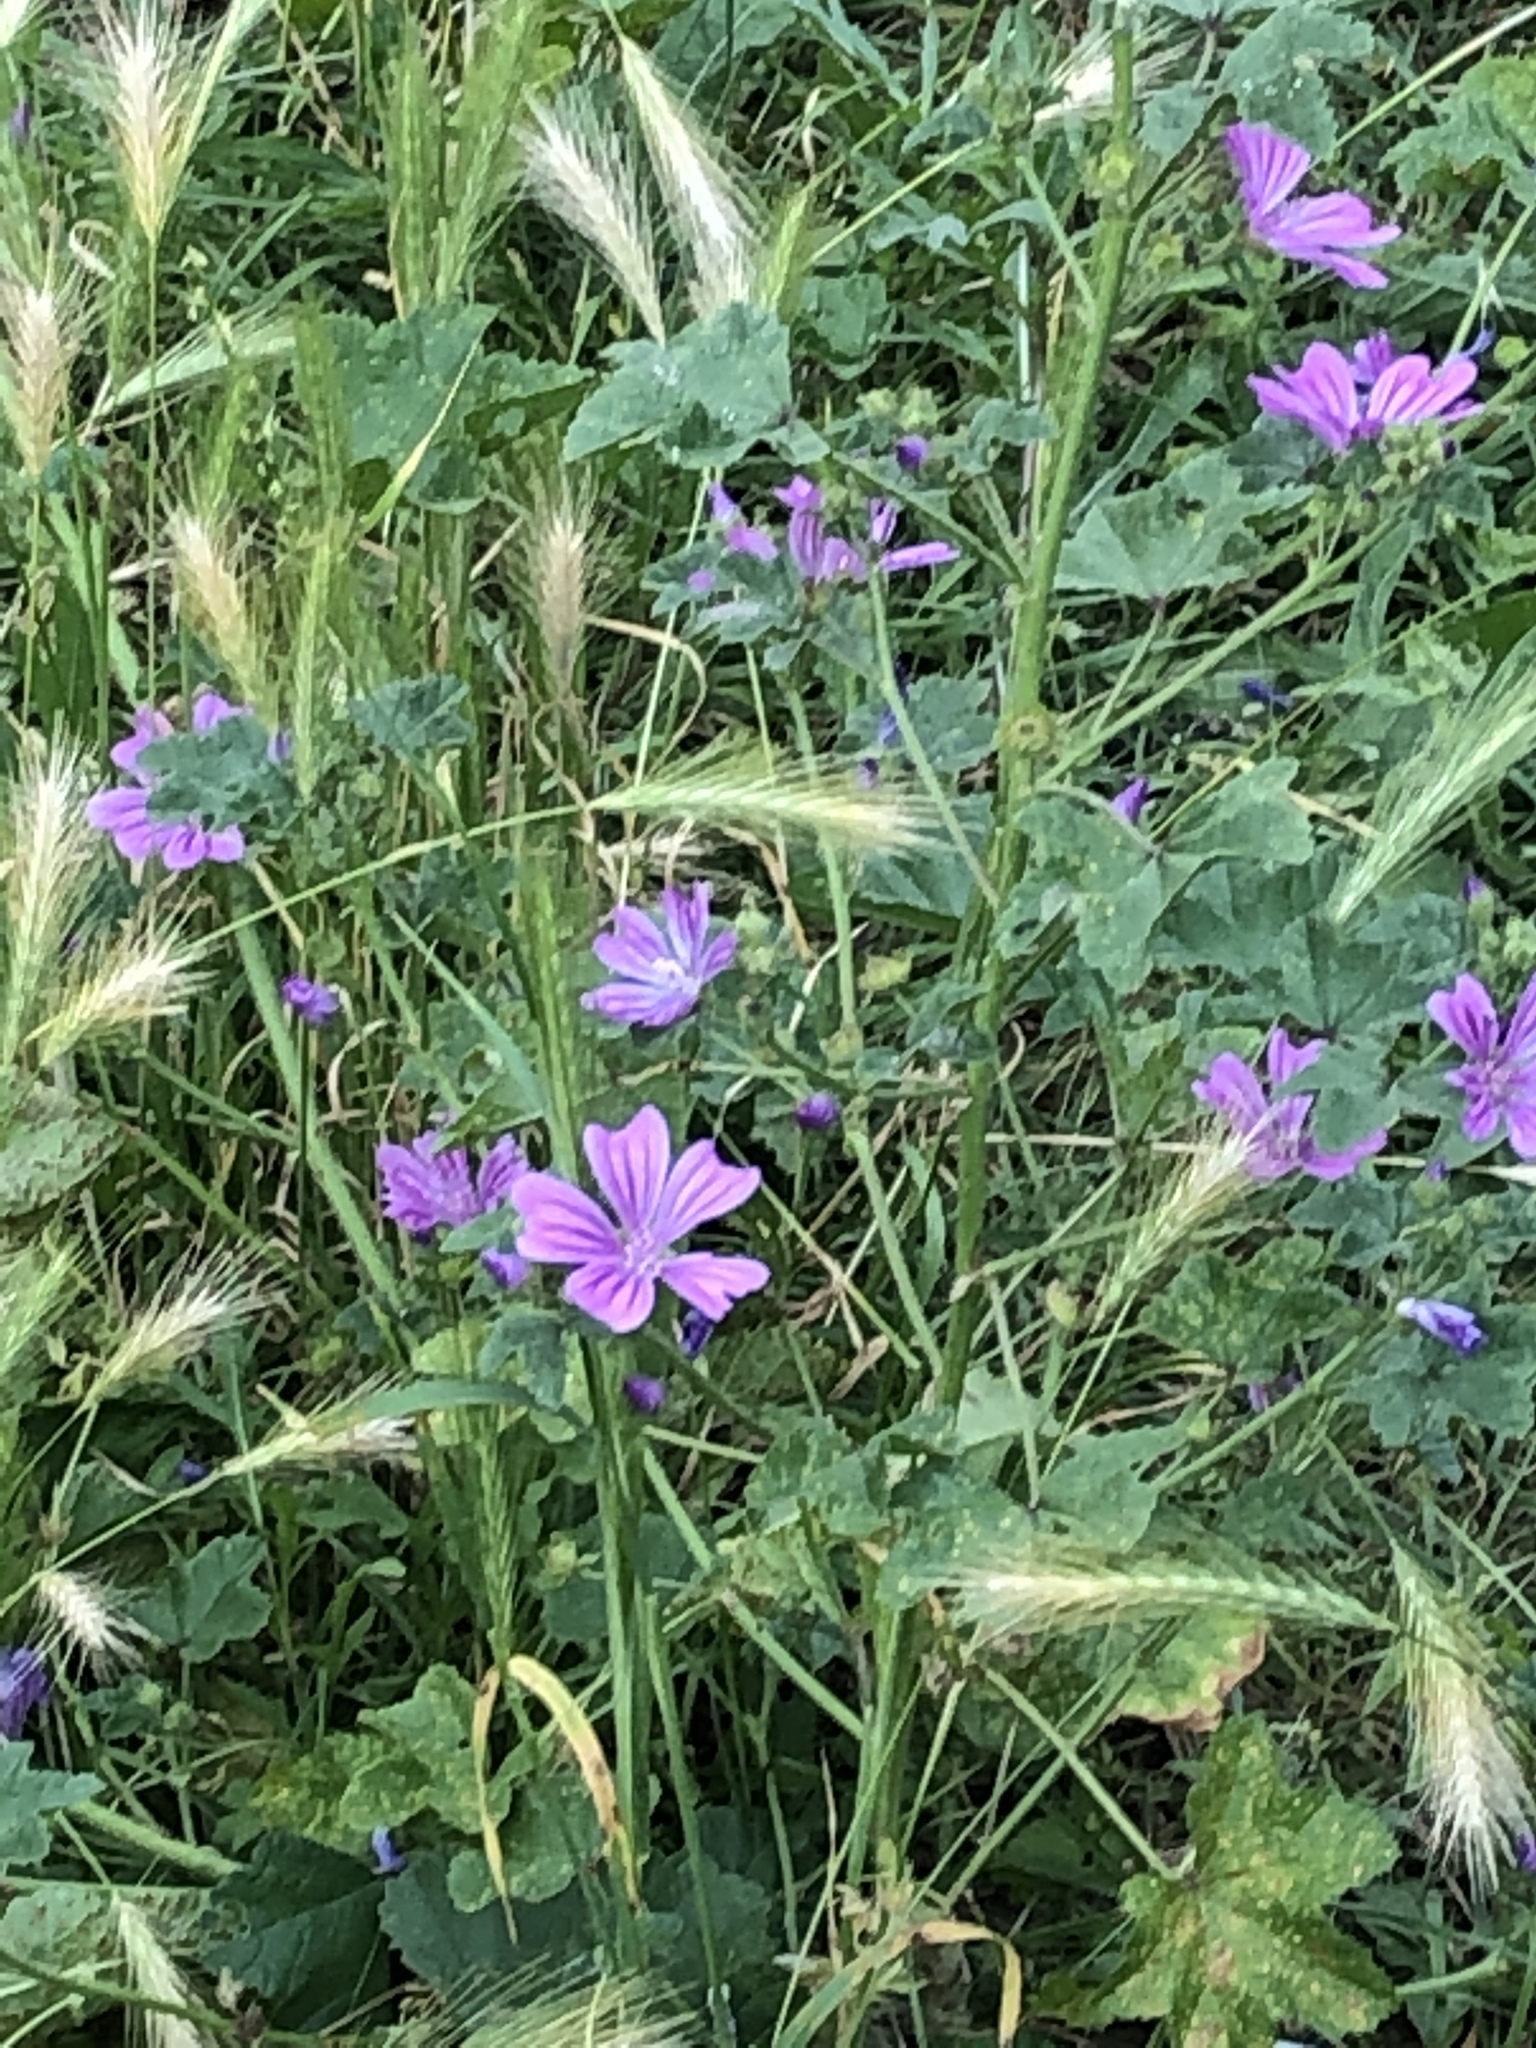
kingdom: Plantae
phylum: Tracheophyta
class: Magnoliopsida
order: Malvales
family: Malvaceae
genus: Malva
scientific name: Malva sylvestris
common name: Common mallow
